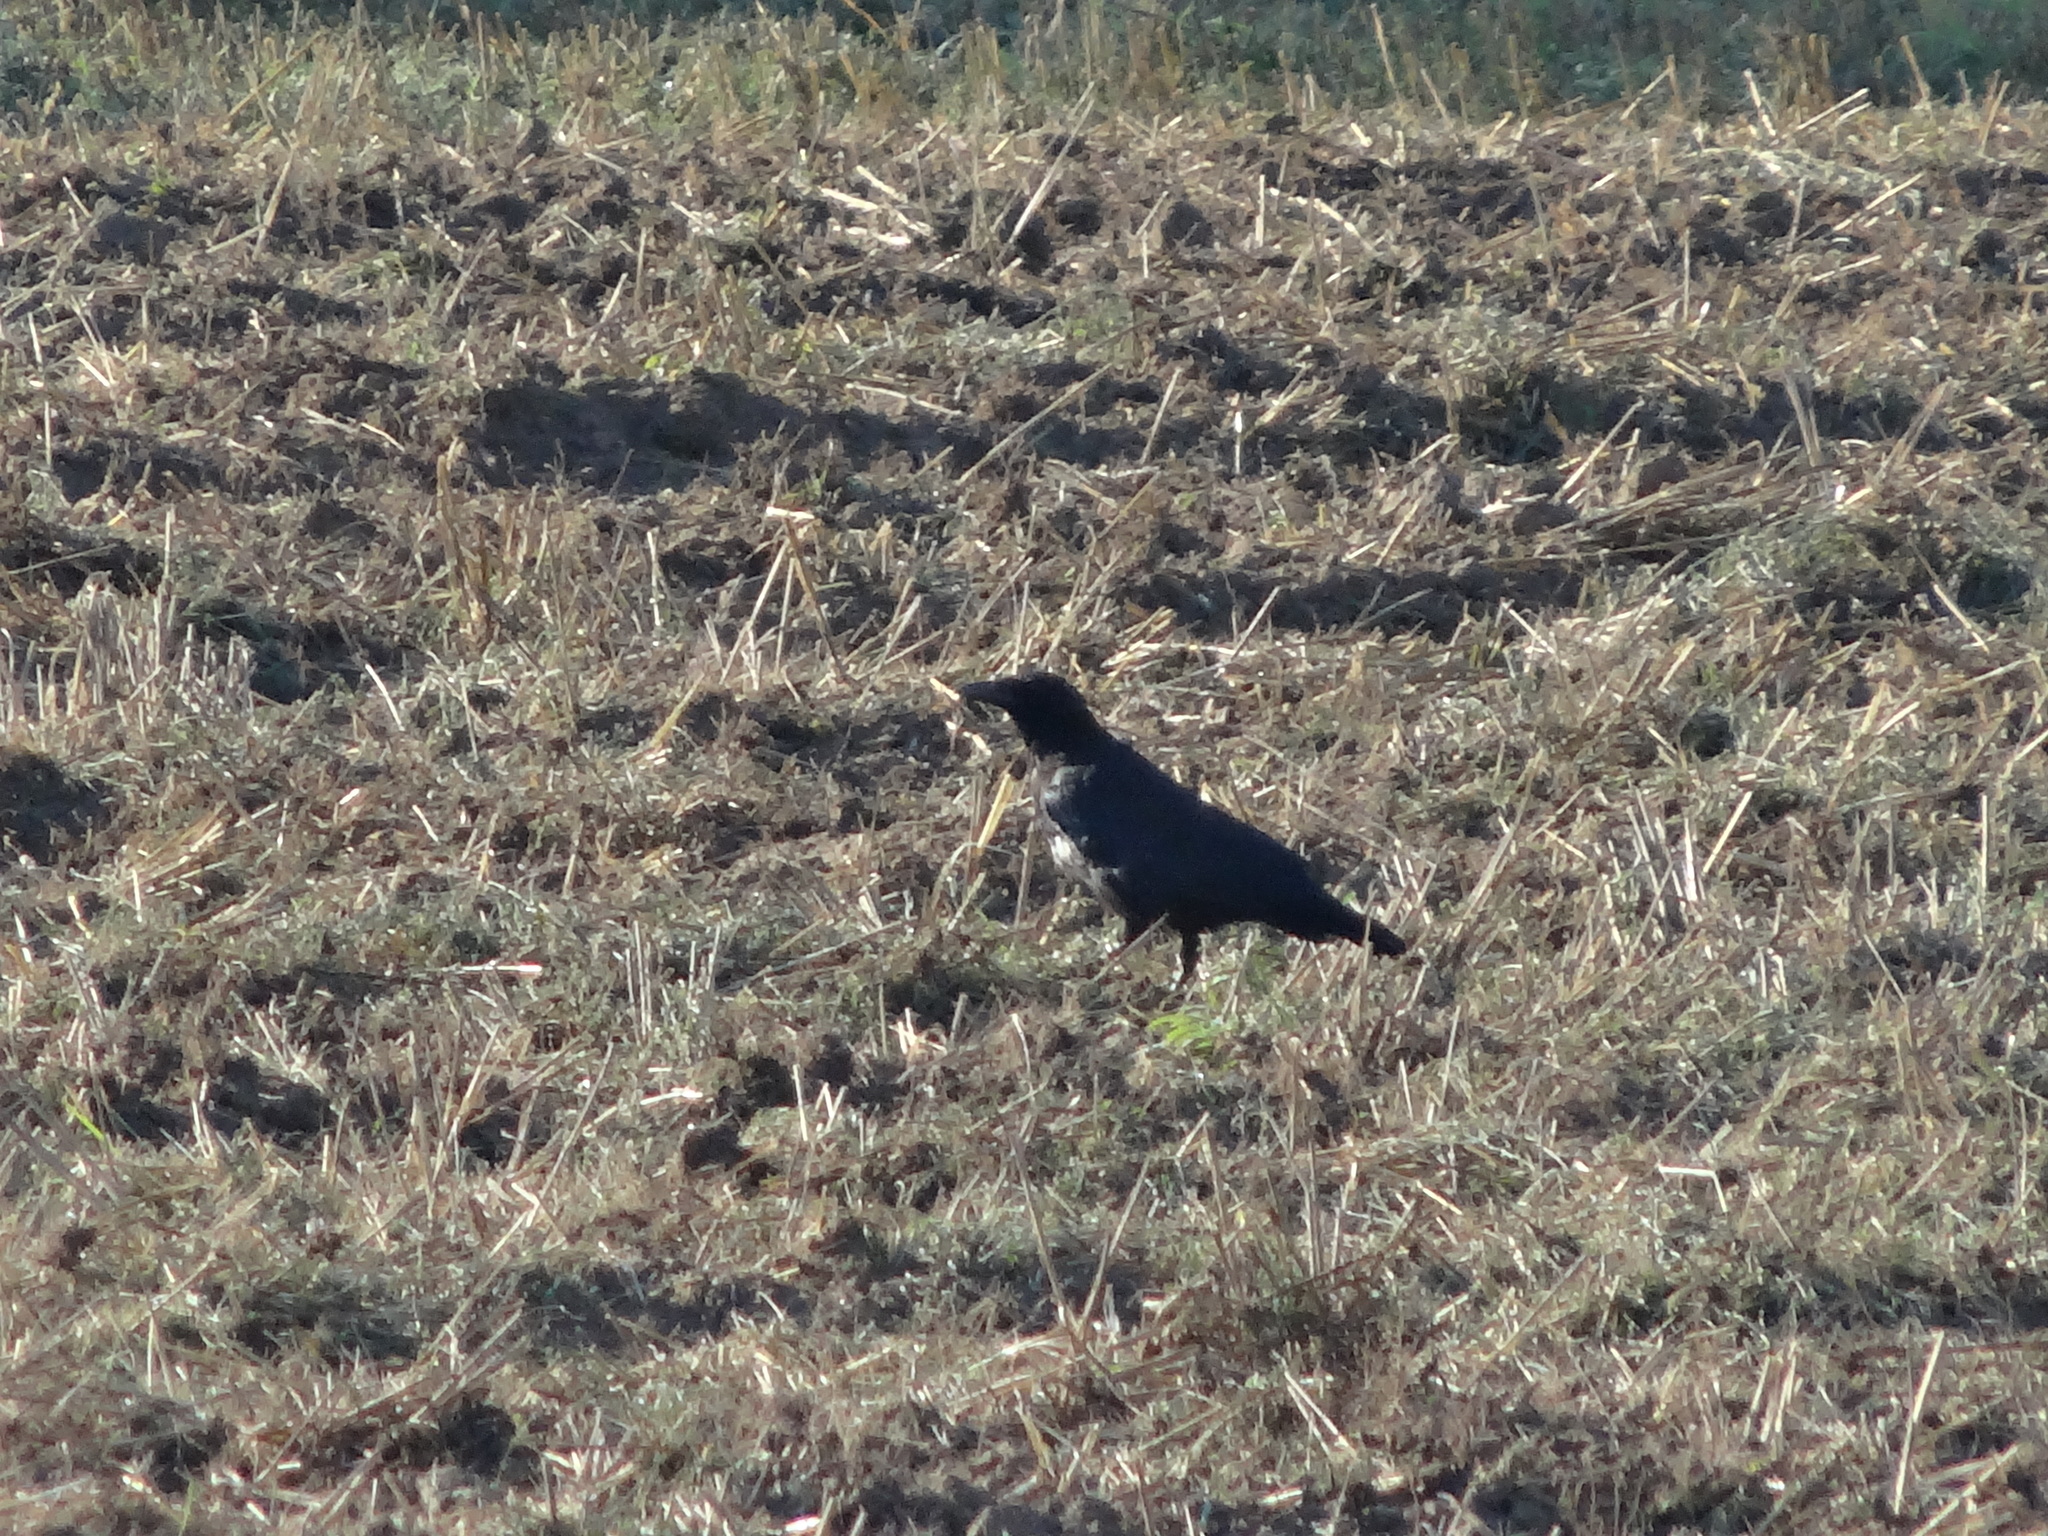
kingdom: Animalia
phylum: Chordata
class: Aves
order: Passeriformes
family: Corvidae
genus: Corvus
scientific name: Corvus corone
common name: Carrion crow
